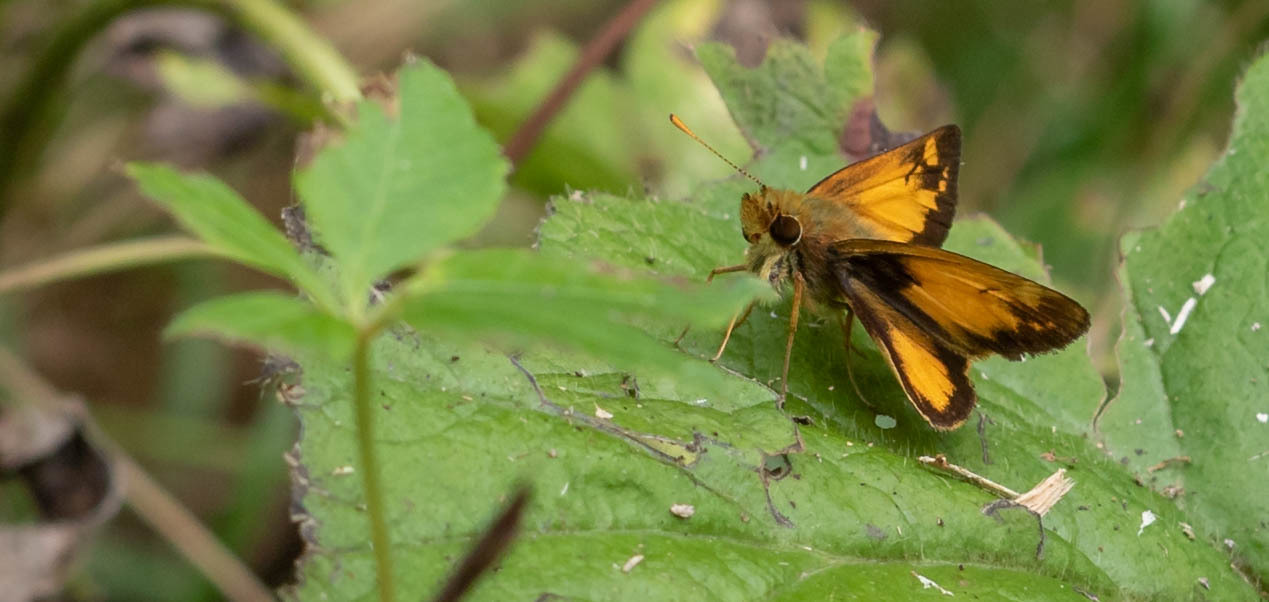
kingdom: Animalia
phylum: Arthropoda
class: Insecta
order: Lepidoptera
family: Hesperiidae
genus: Lon
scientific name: Lon zabulon
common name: Zabulon skipper
